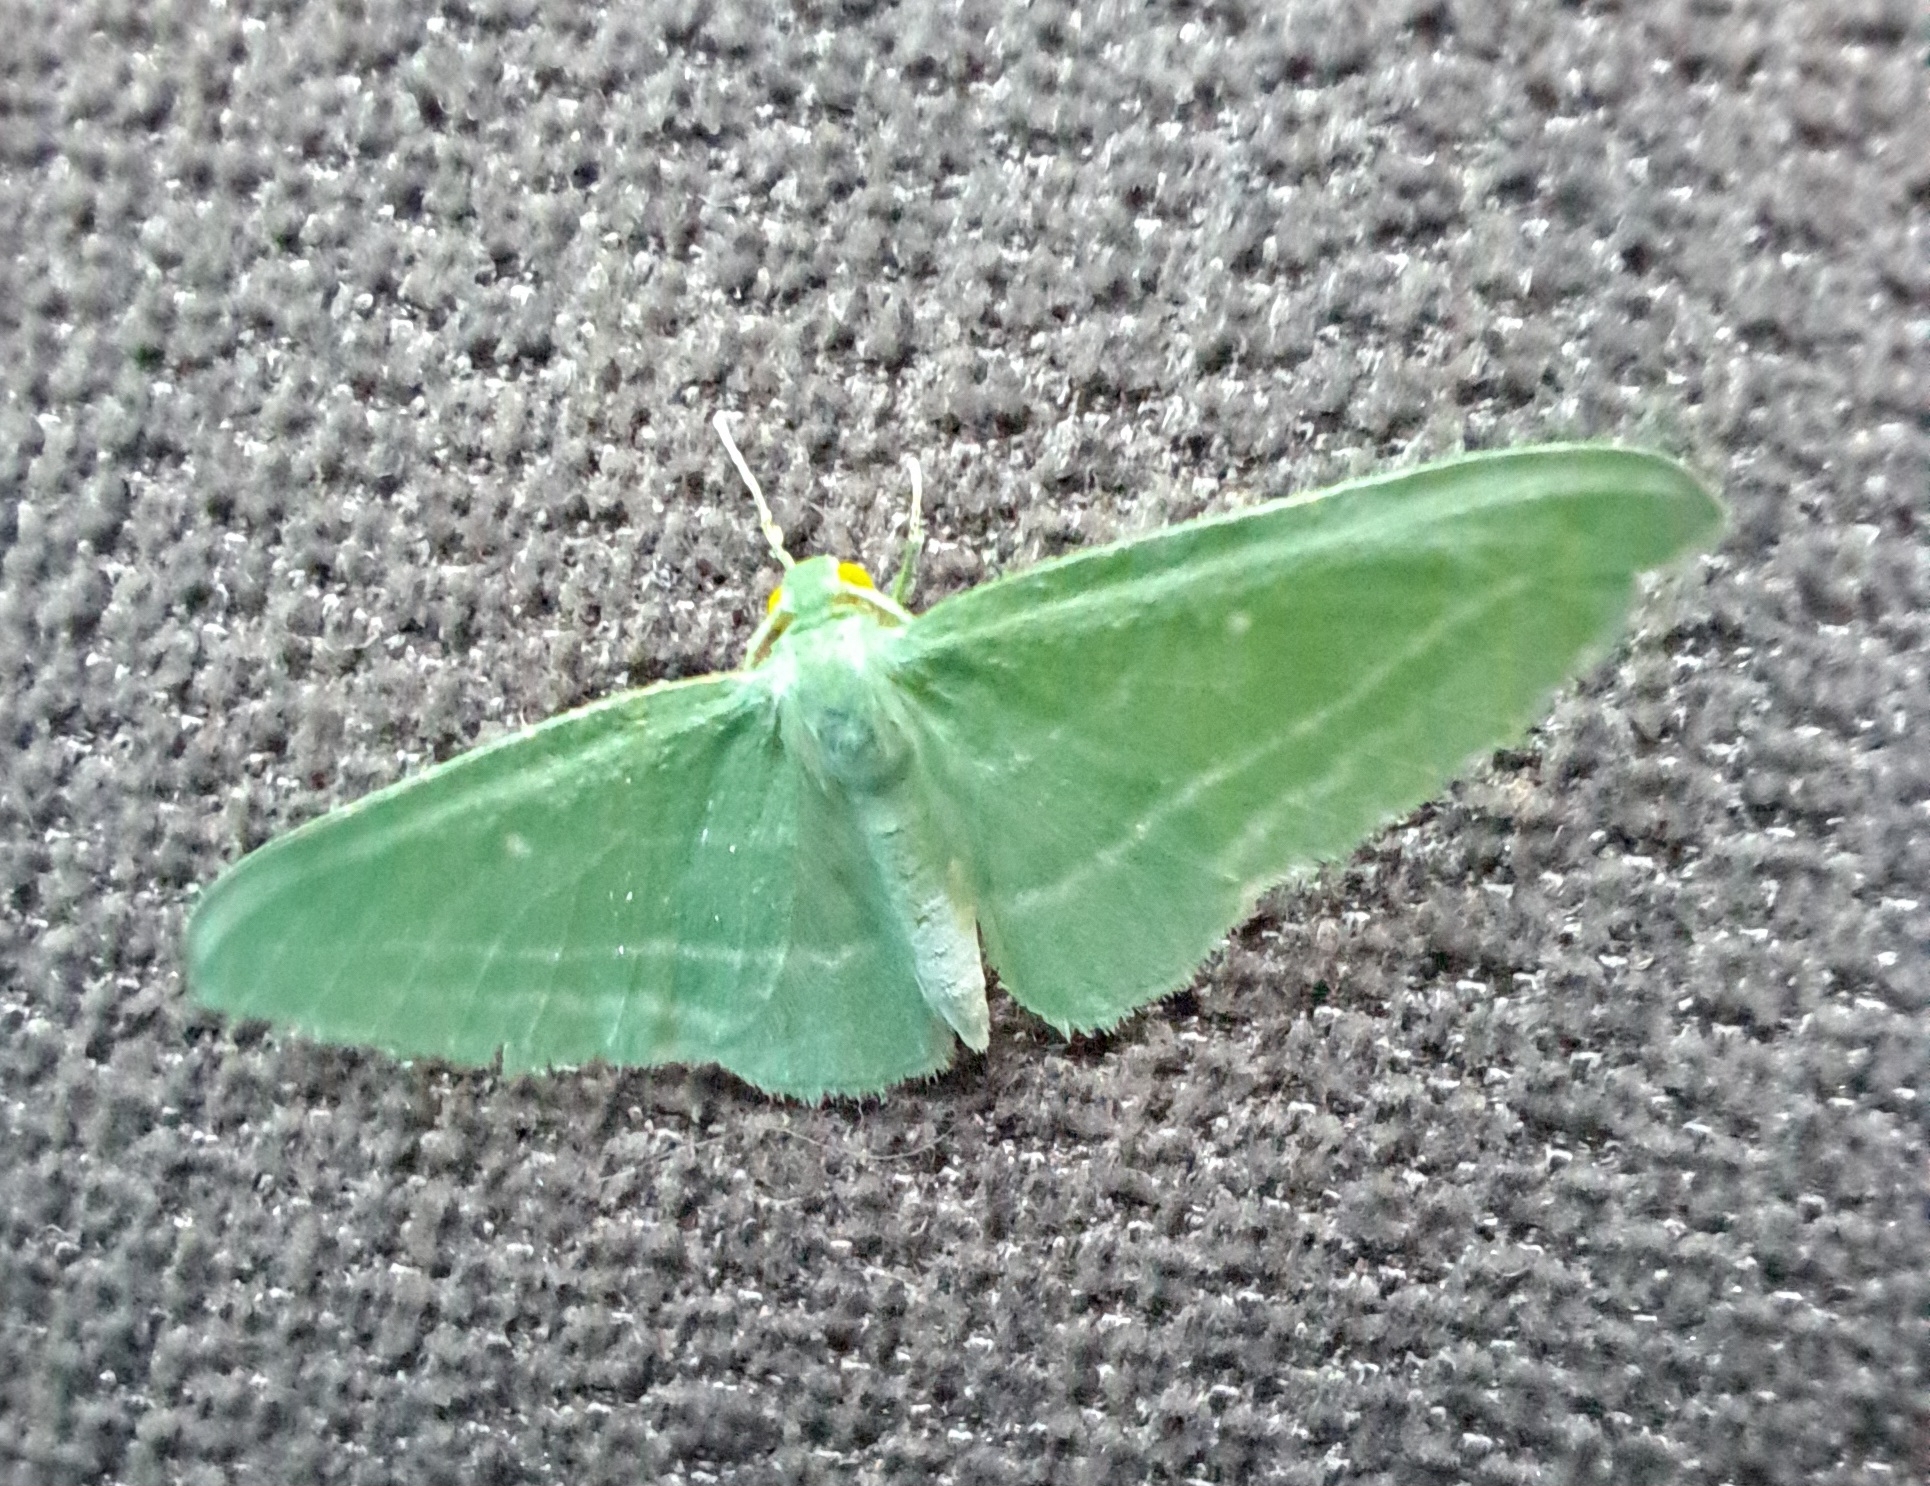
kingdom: Animalia
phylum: Arthropoda
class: Insecta
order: Lepidoptera
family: Geometridae
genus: Dyspteris
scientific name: Dyspteris abortivaria
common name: Bad-wing
